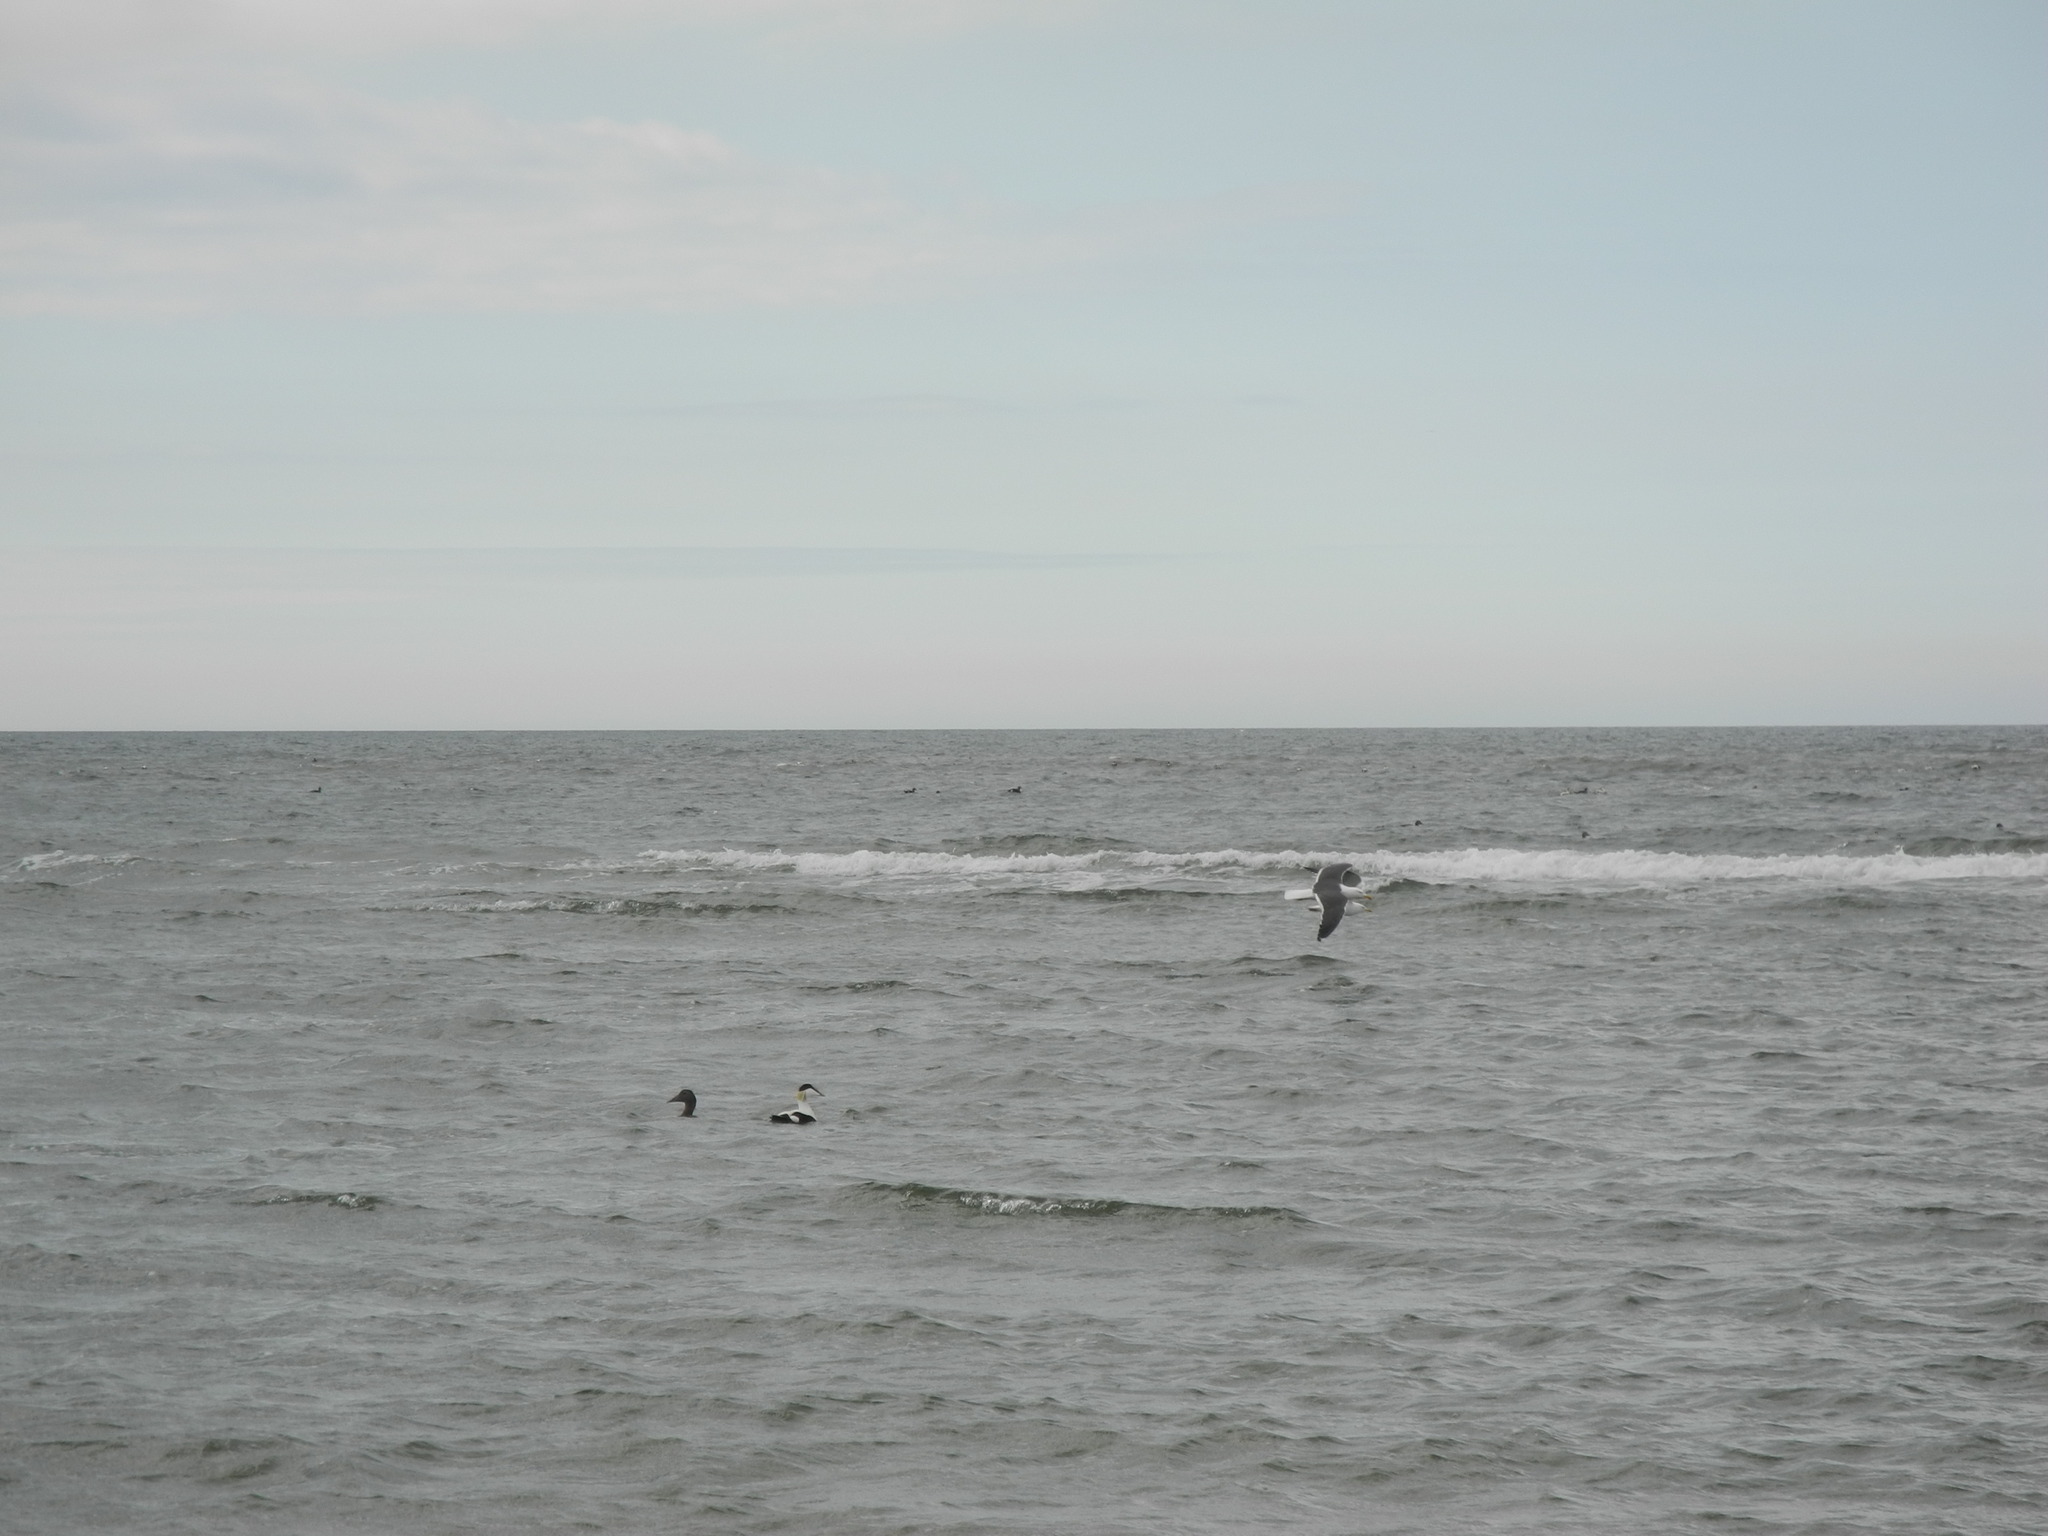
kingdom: Animalia
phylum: Chordata
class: Aves
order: Anseriformes
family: Anatidae
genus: Somateria
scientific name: Somateria mollissima
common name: Common eider
